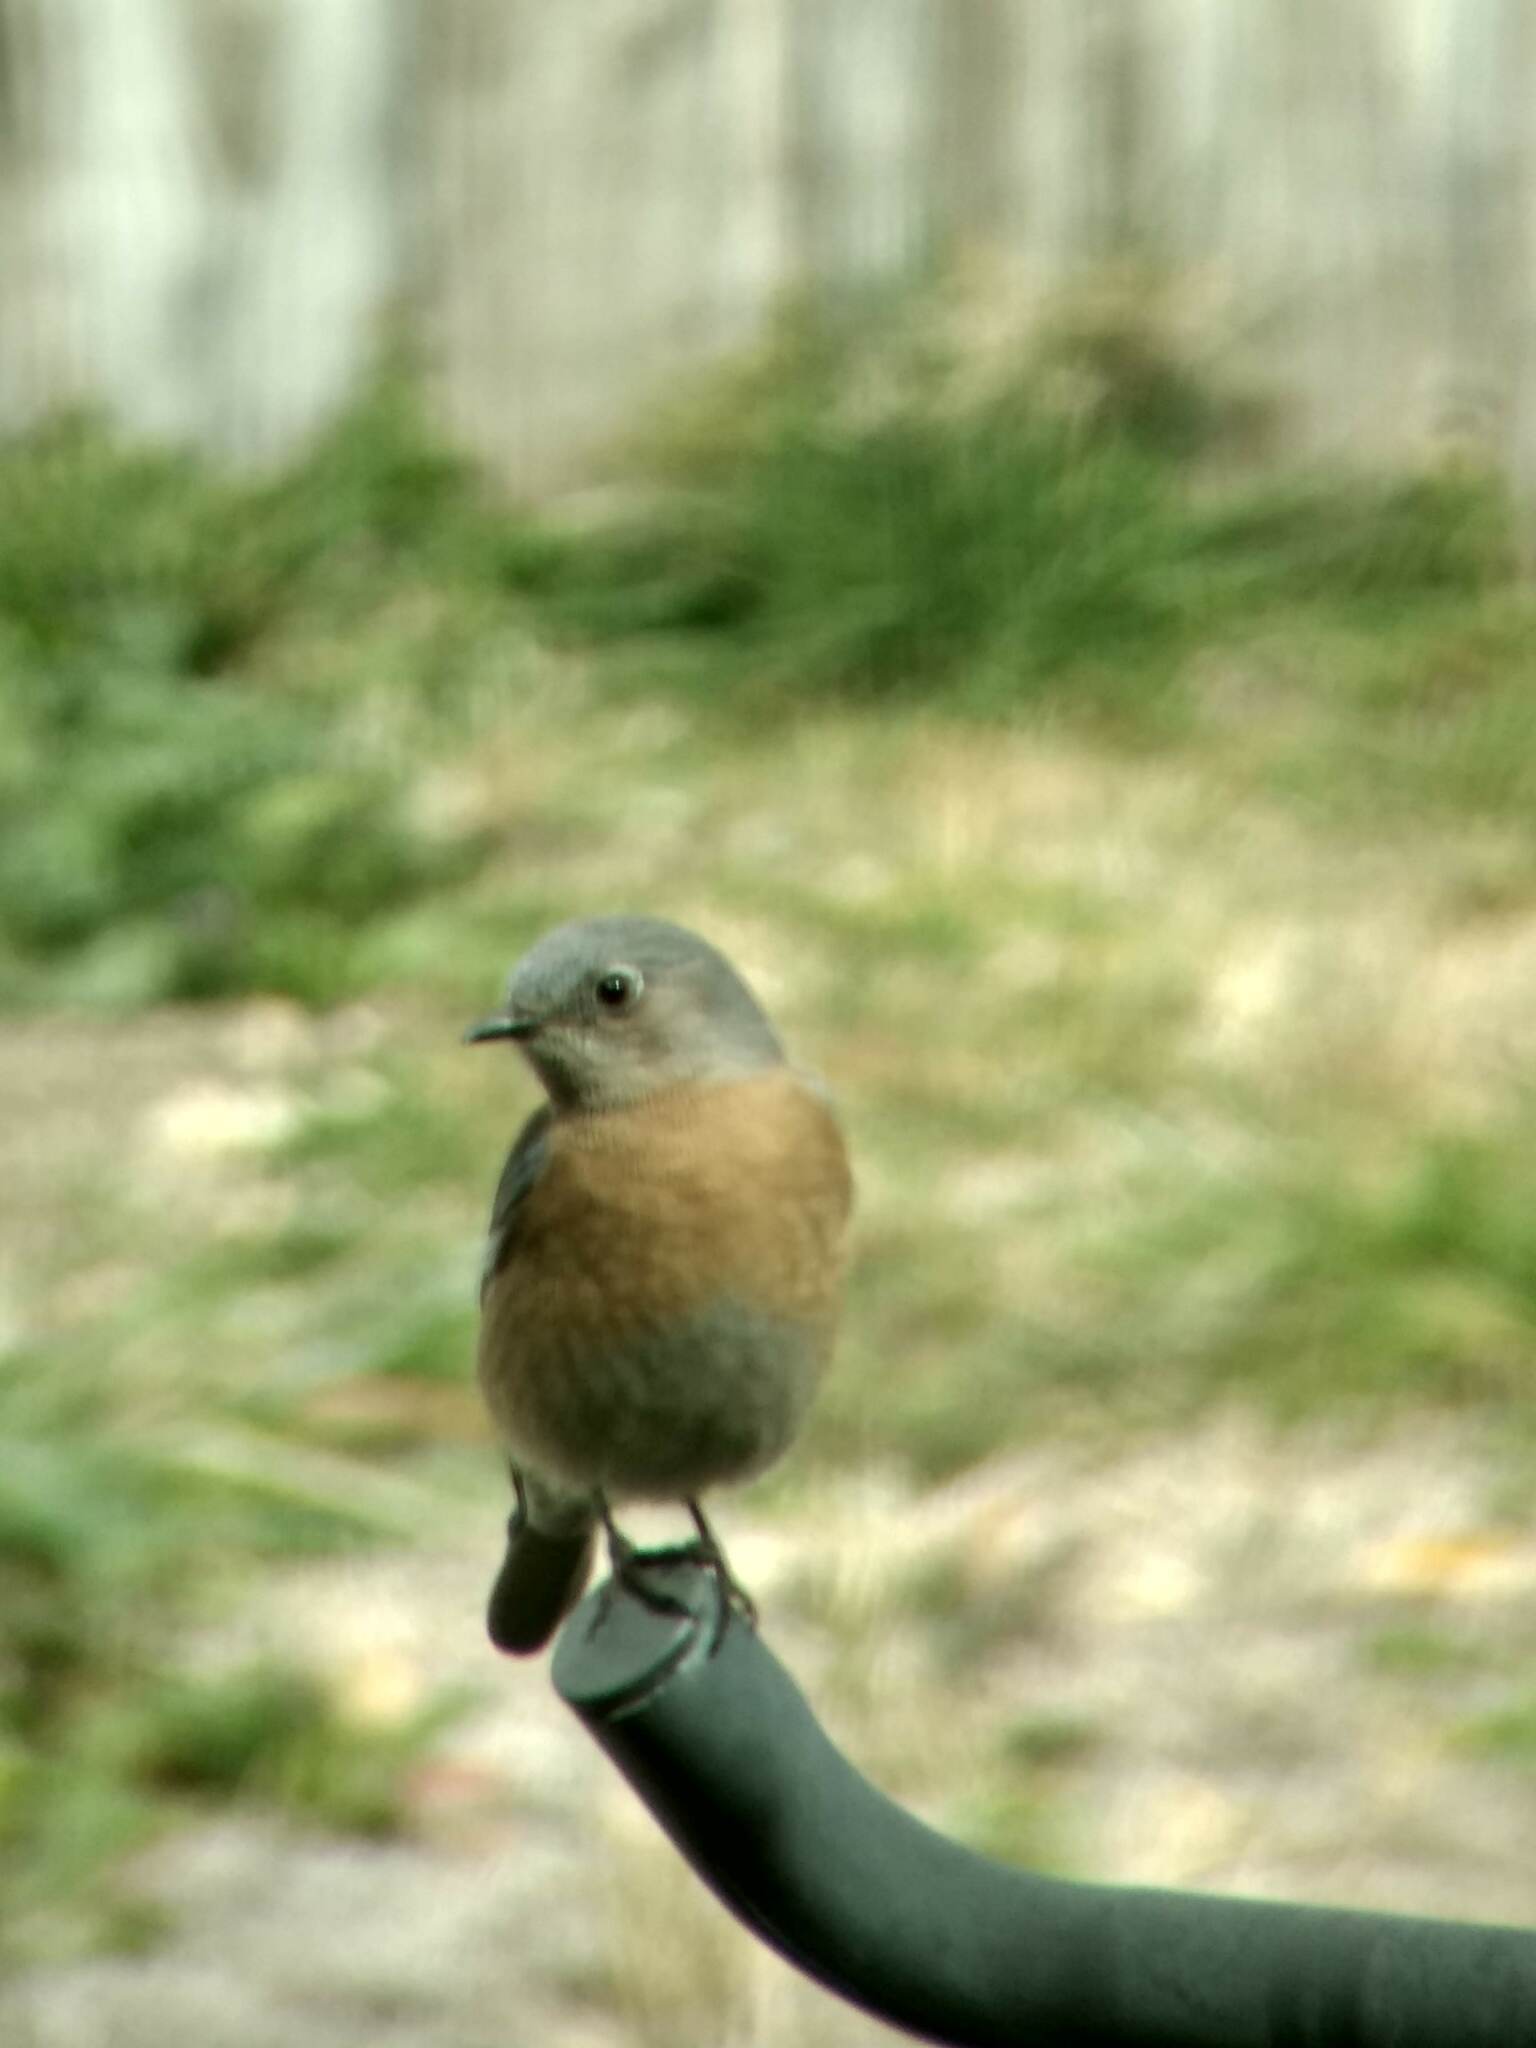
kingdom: Animalia
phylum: Chordata
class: Aves
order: Passeriformes
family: Turdidae
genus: Sialia
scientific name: Sialia mexicana
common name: Western bluebird
